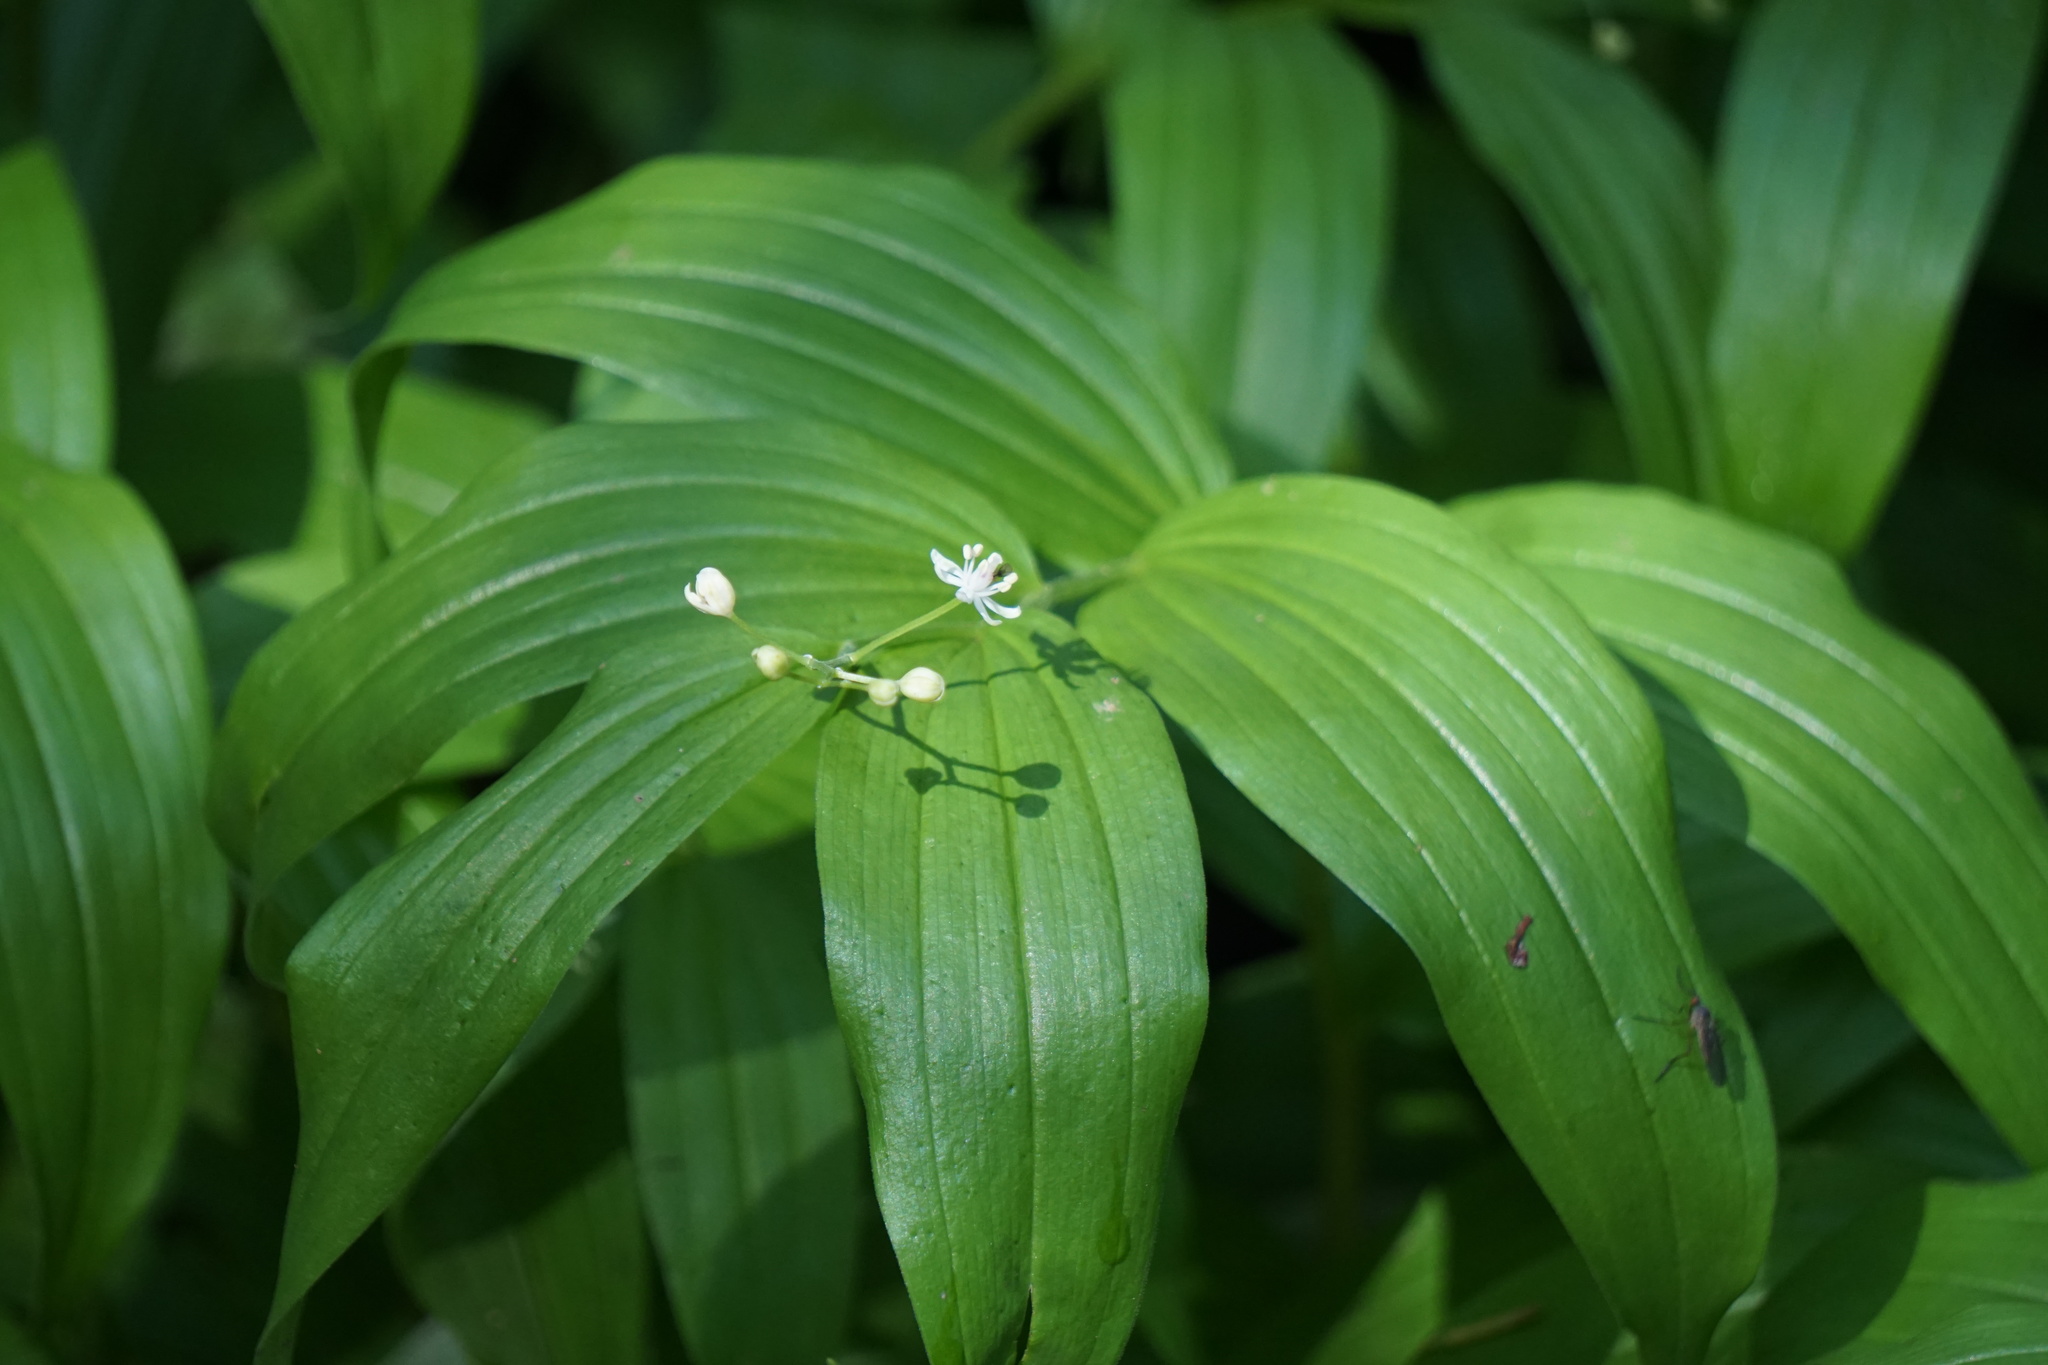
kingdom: Plantae
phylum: Tracheophyta
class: Liliopsida
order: Asparagales
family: Asparagaceae
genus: Maianthemum
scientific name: Maianthemum stellatum
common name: Little false solomon's seal
